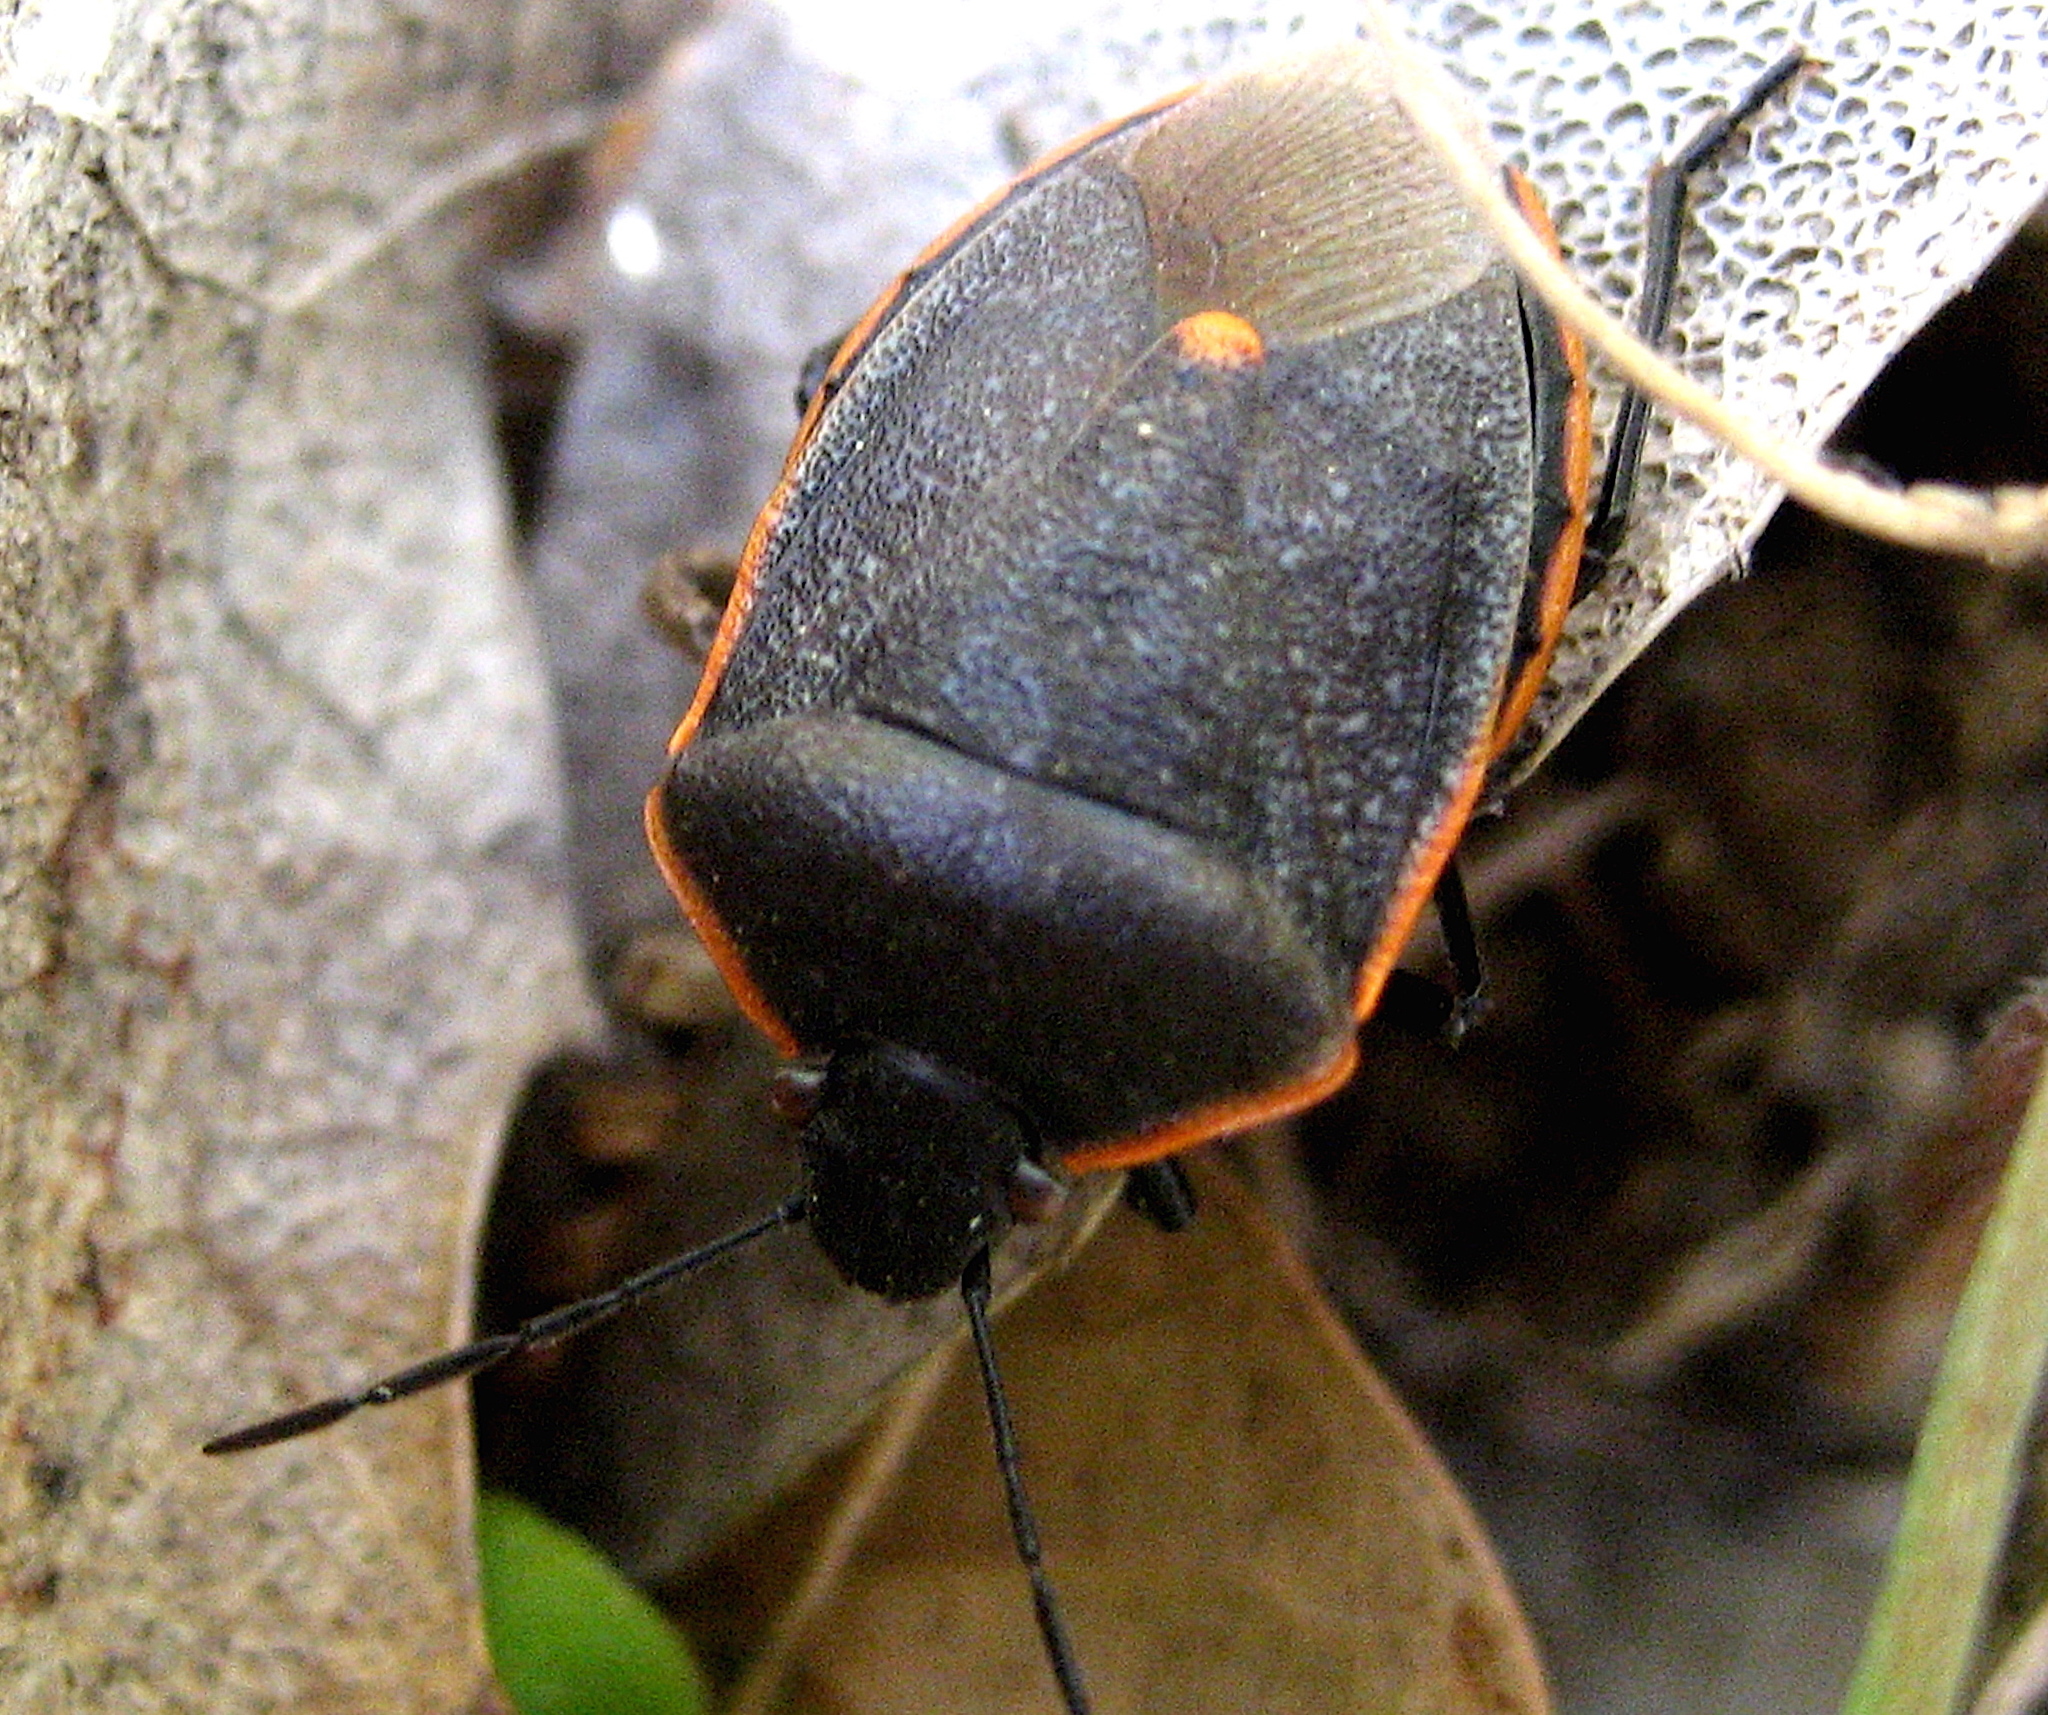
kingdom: Animalia
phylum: Arthropoda
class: Insecta
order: Hemiptera
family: Pentatomidae
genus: Chlorochroa
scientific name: Chlorochroa ligata
